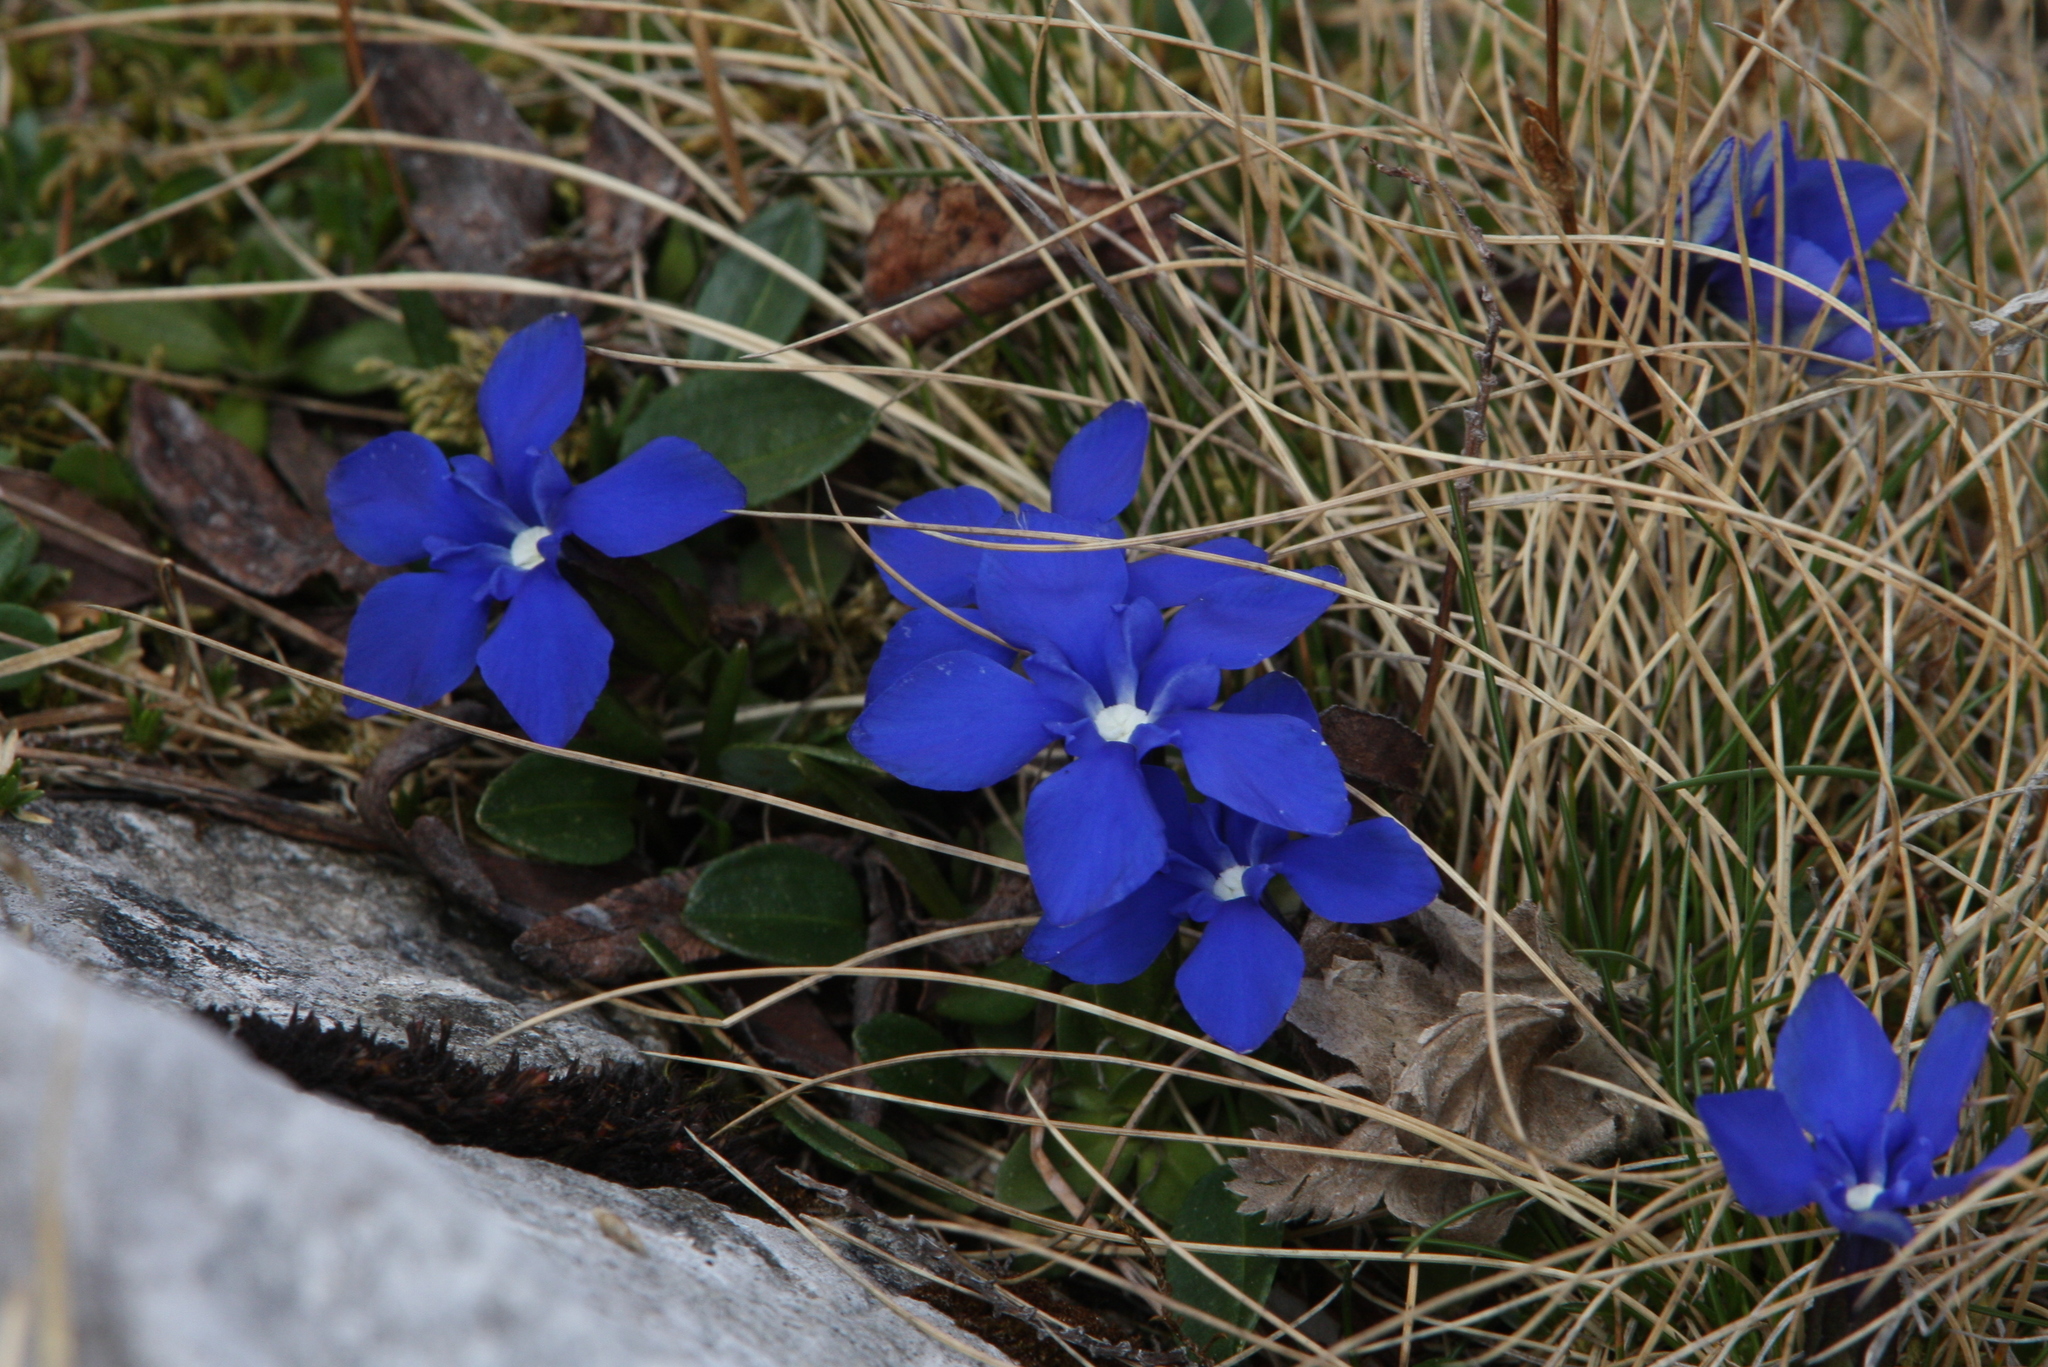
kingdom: Plantae
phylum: Tracheophyta
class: Magnoliopsida
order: Gentianales
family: Gentianaceae
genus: Gentiana
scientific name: Gentiana verna
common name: Spring gentian
